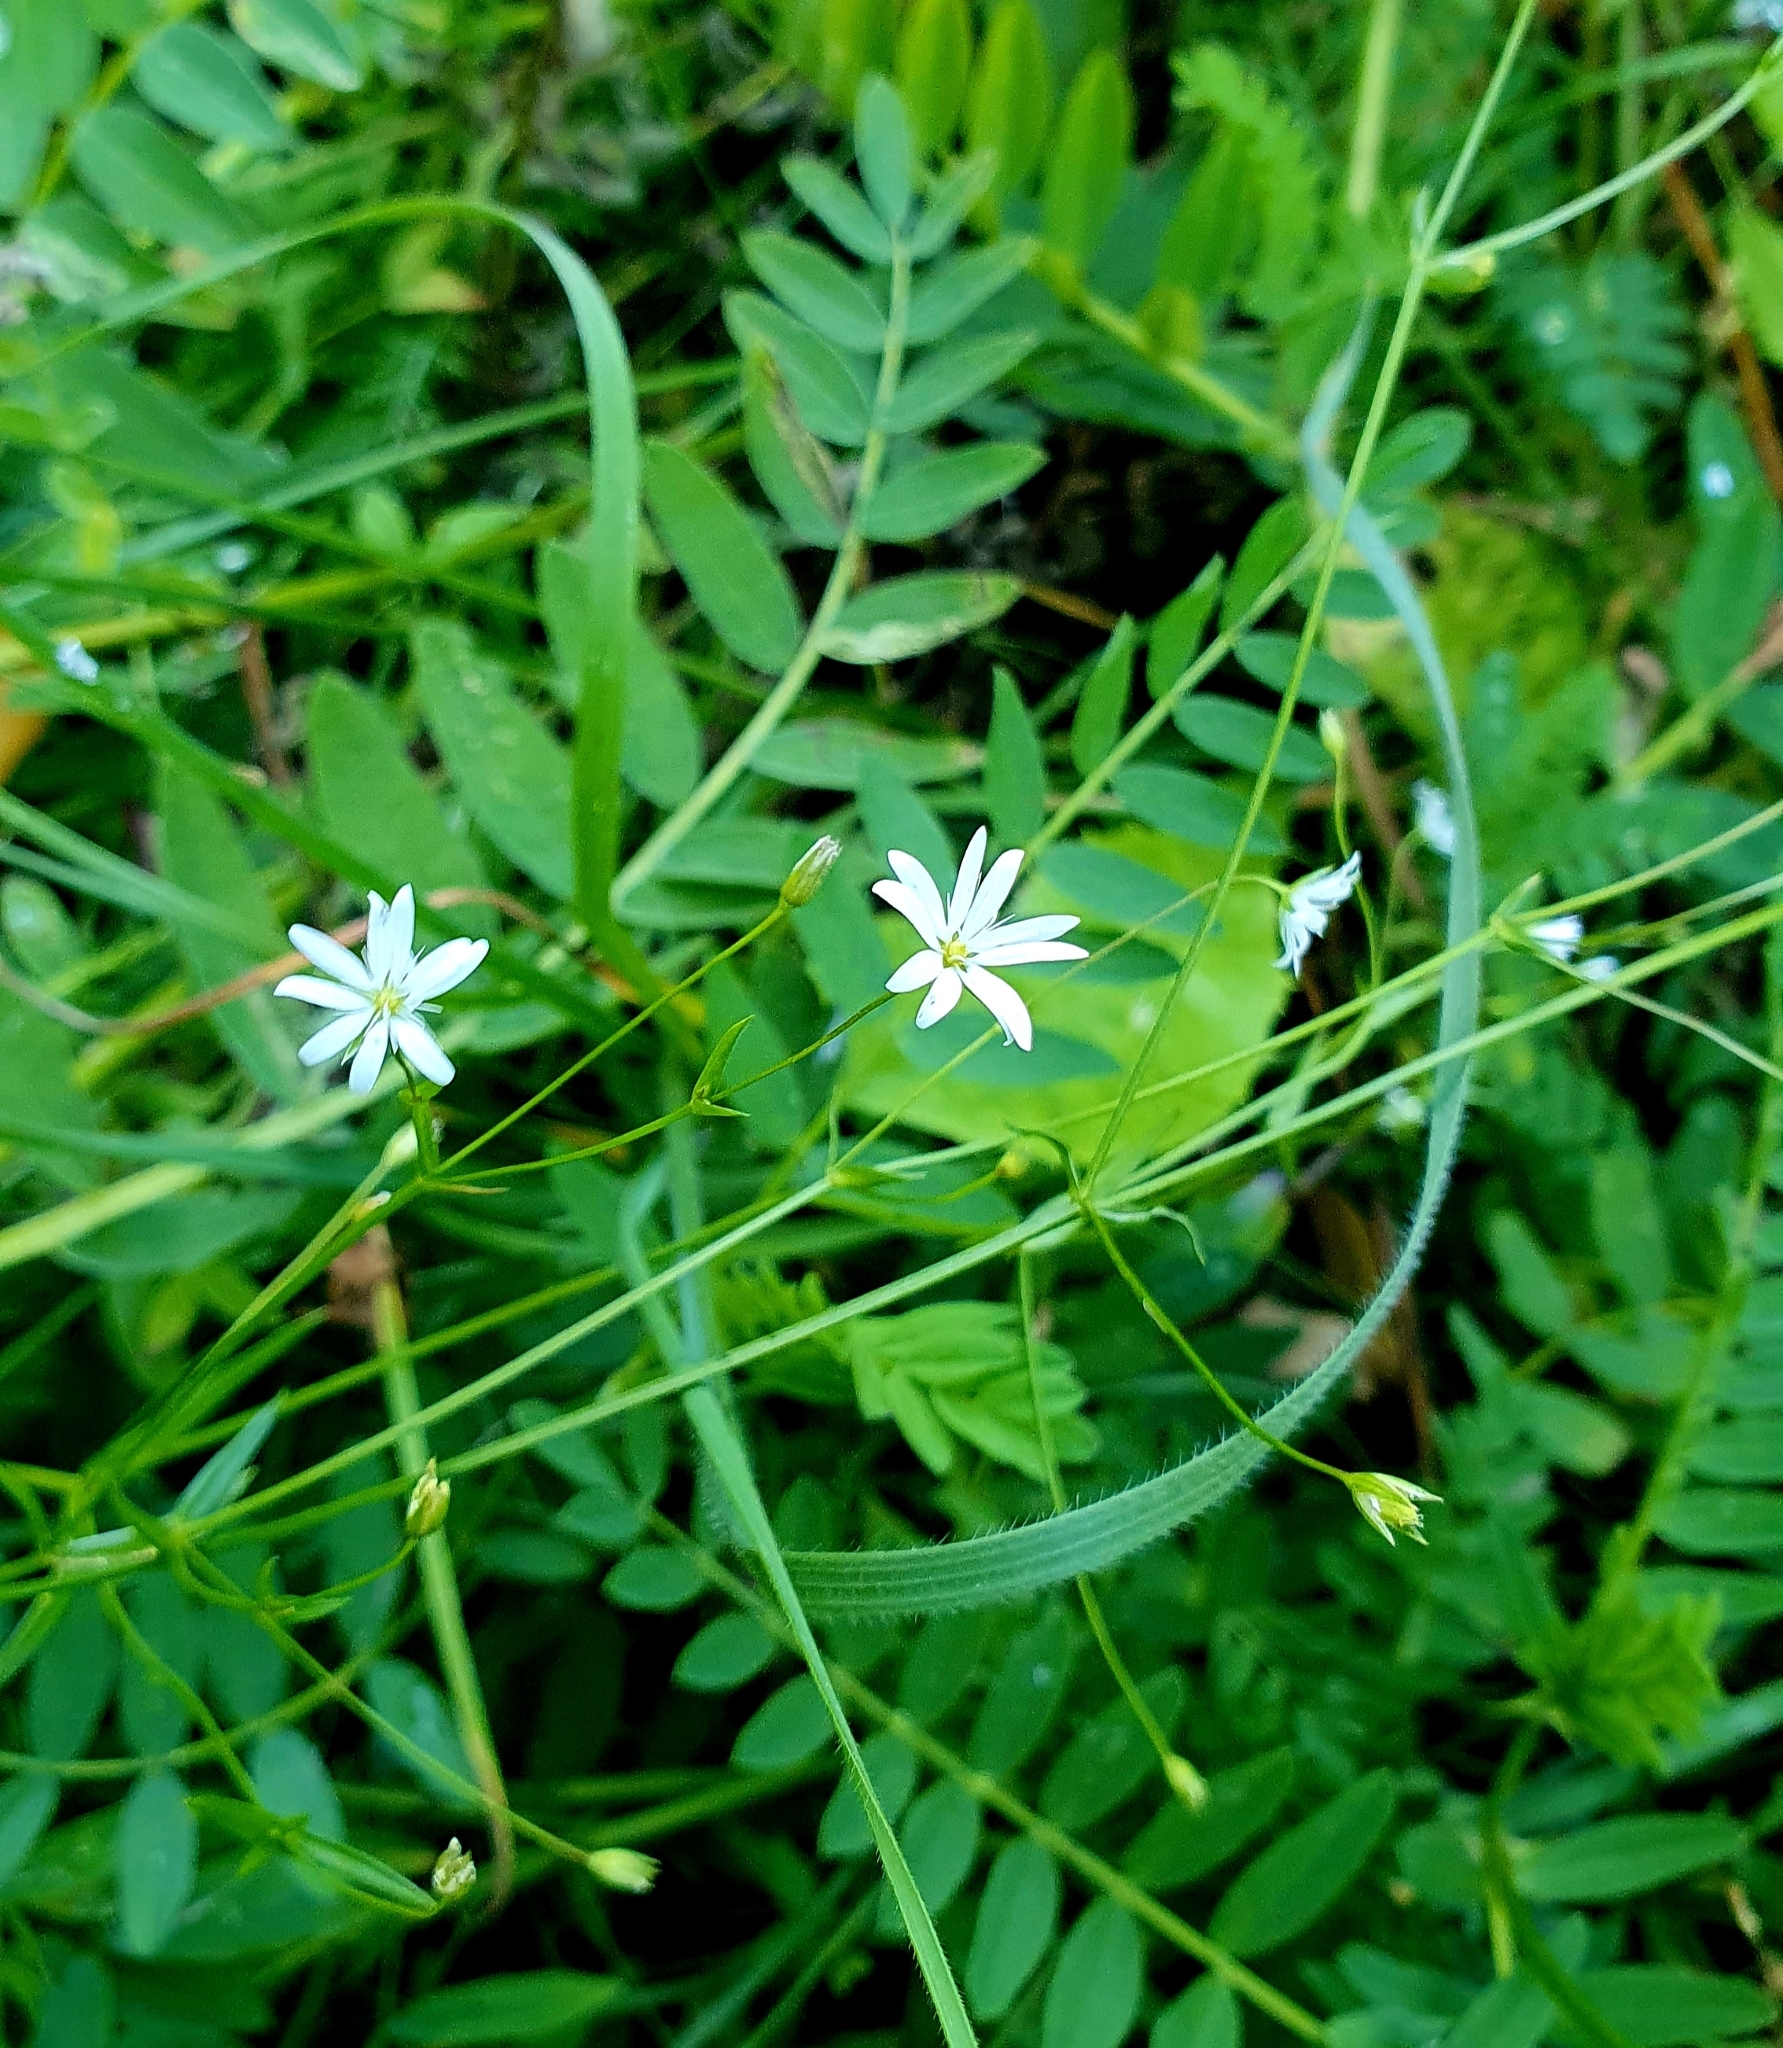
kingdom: Plantae
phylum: Tracheophyta
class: Magnoliopsida
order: Caryophyllales
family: Caryophyllaceae
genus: Stellaria
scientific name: Stellaria graminea
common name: Grass-like starwort
